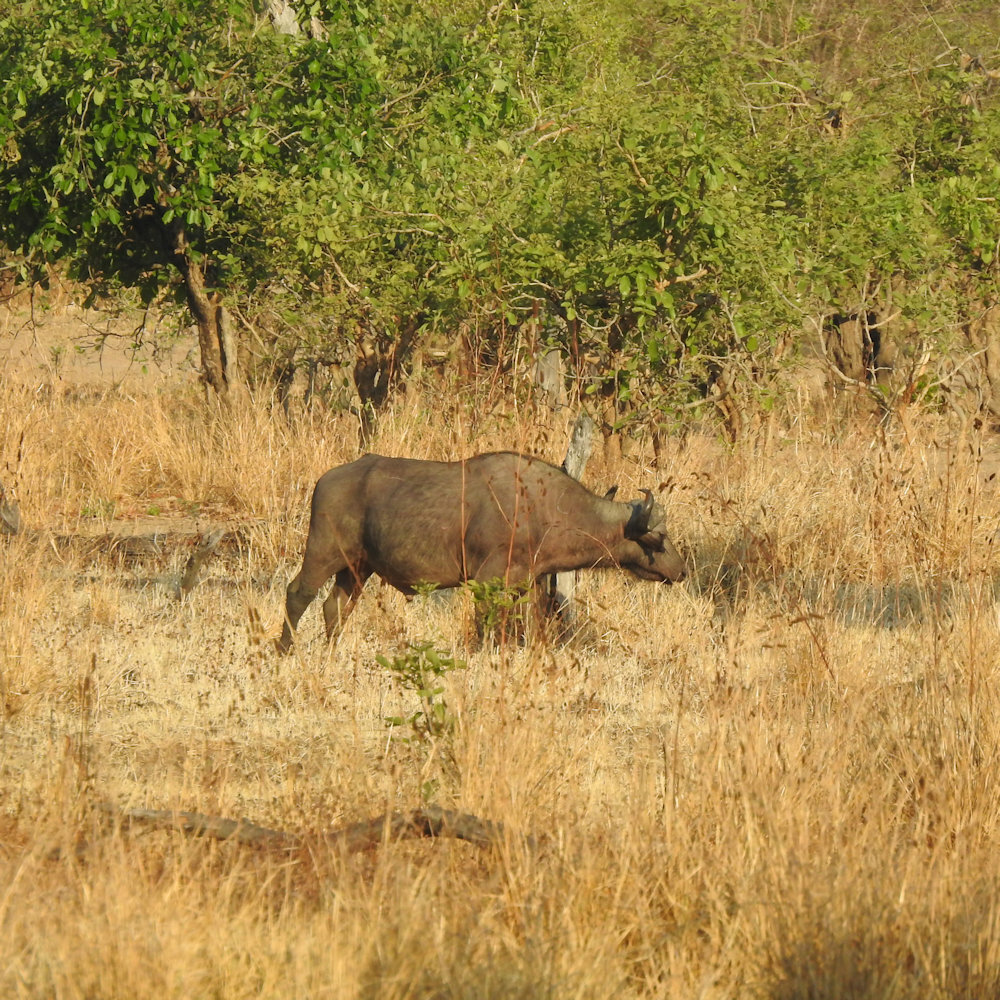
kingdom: Animalia
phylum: Chordata
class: Mammalia
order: Artiodactyla
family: Bovidae
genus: Syncerus
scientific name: Syncerus caffer
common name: African buffalo
